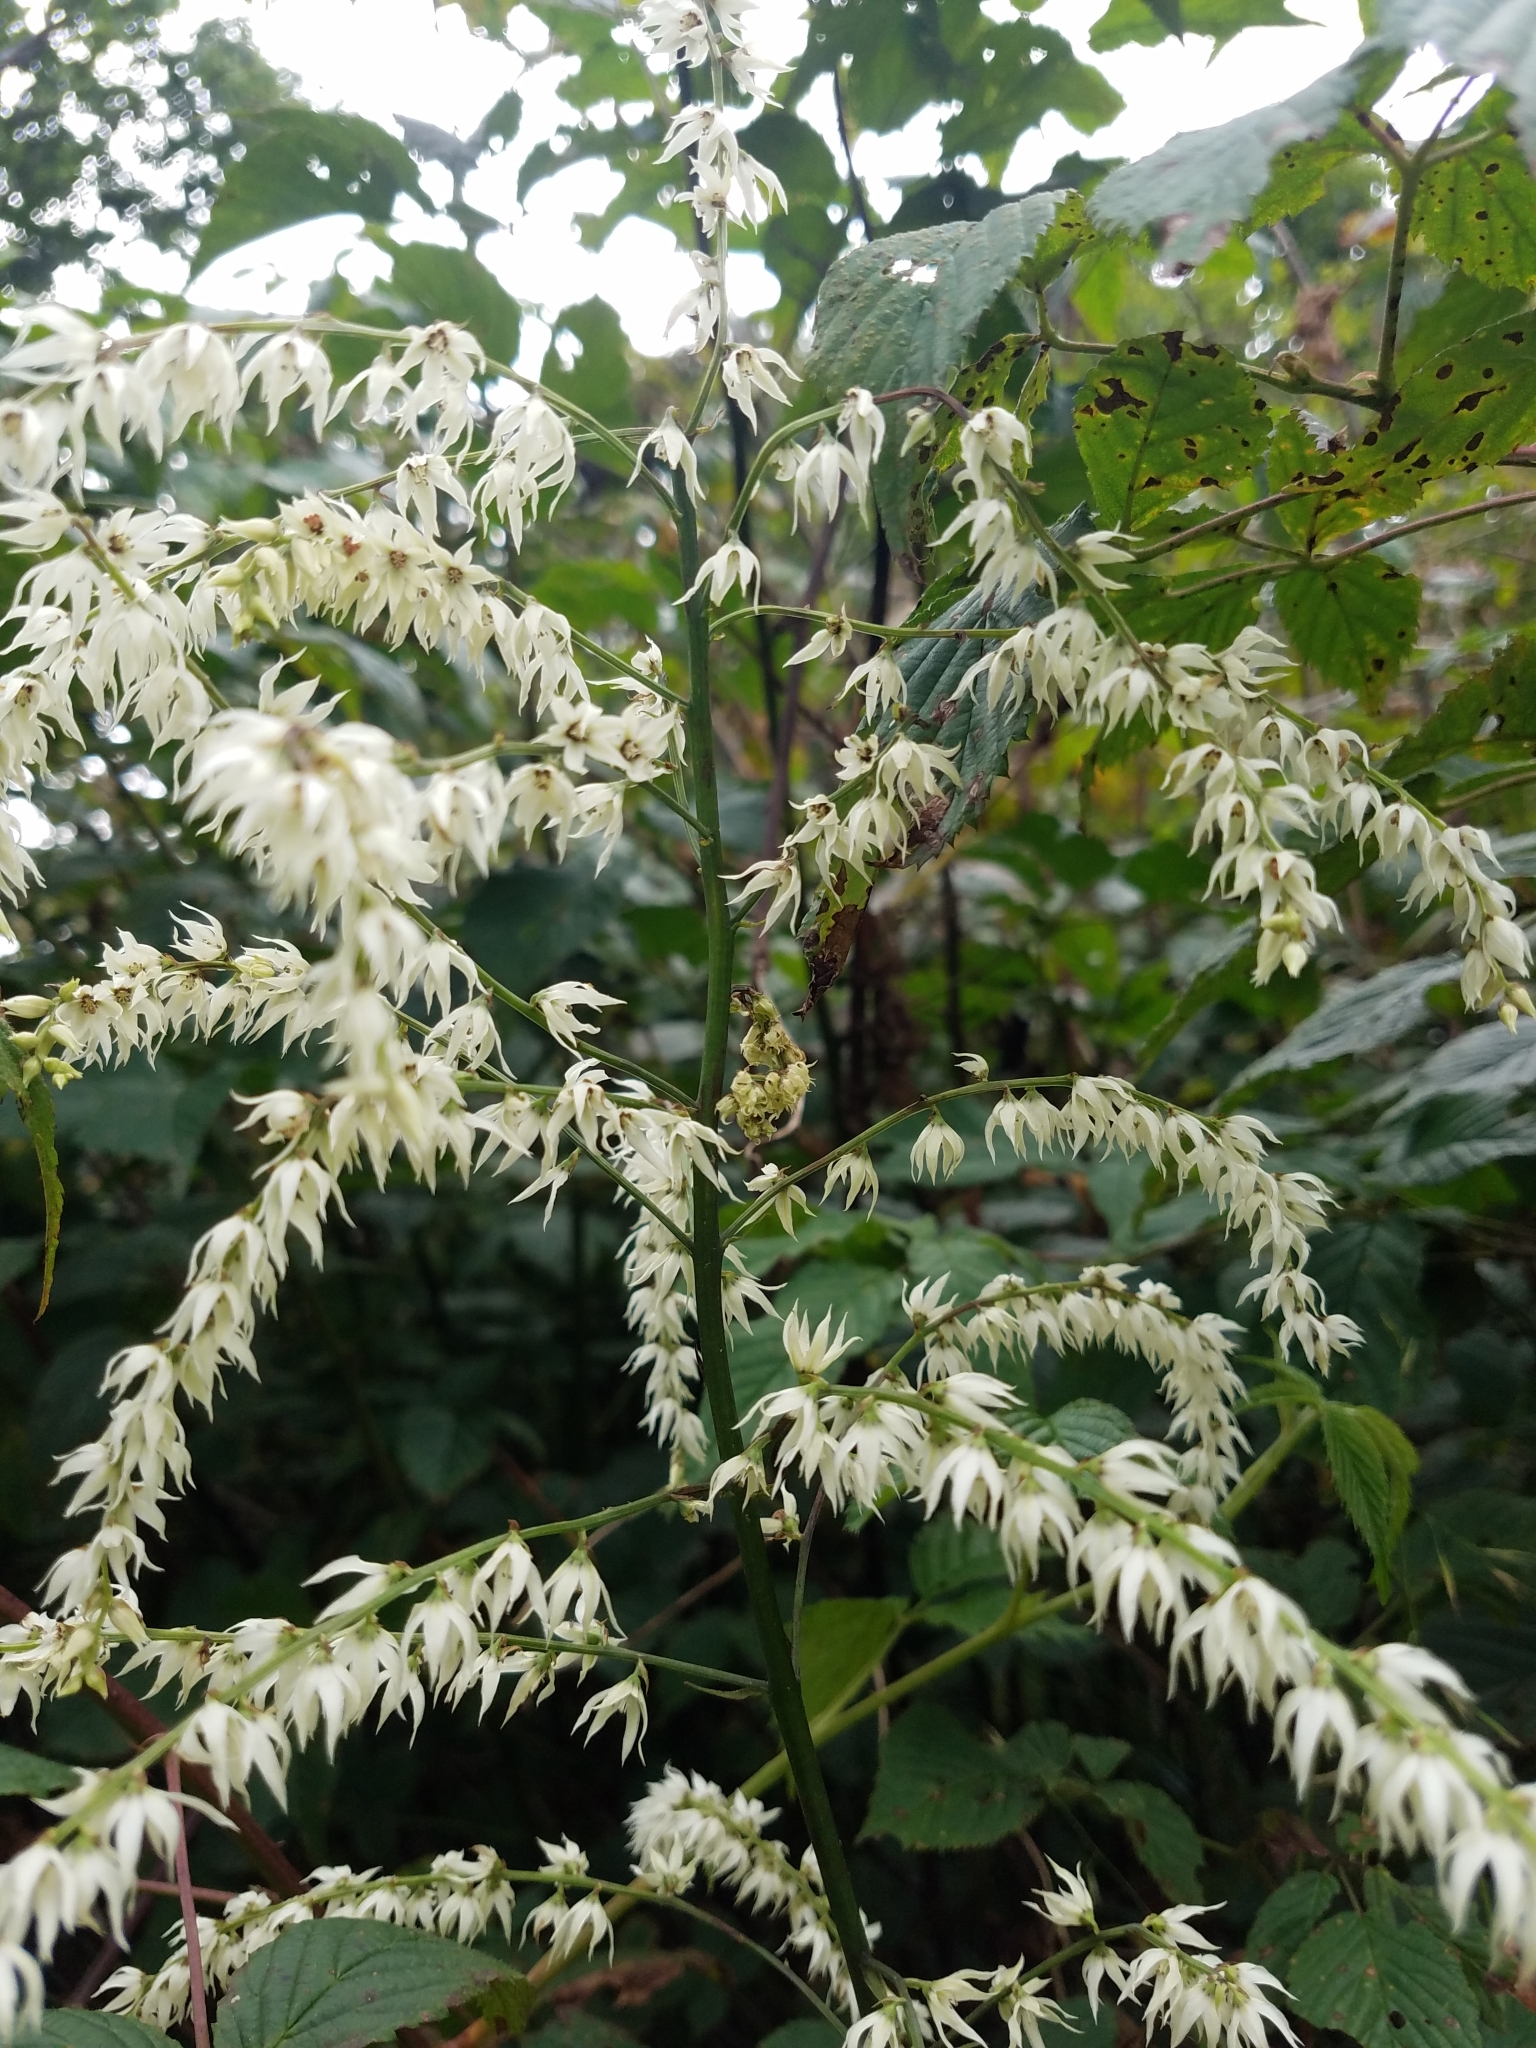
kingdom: Plantae
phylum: Tracheophyta
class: Liliopsida
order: Liliales
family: Melanthiaceae
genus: Stenanthium
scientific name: Stenanthium gramineum
